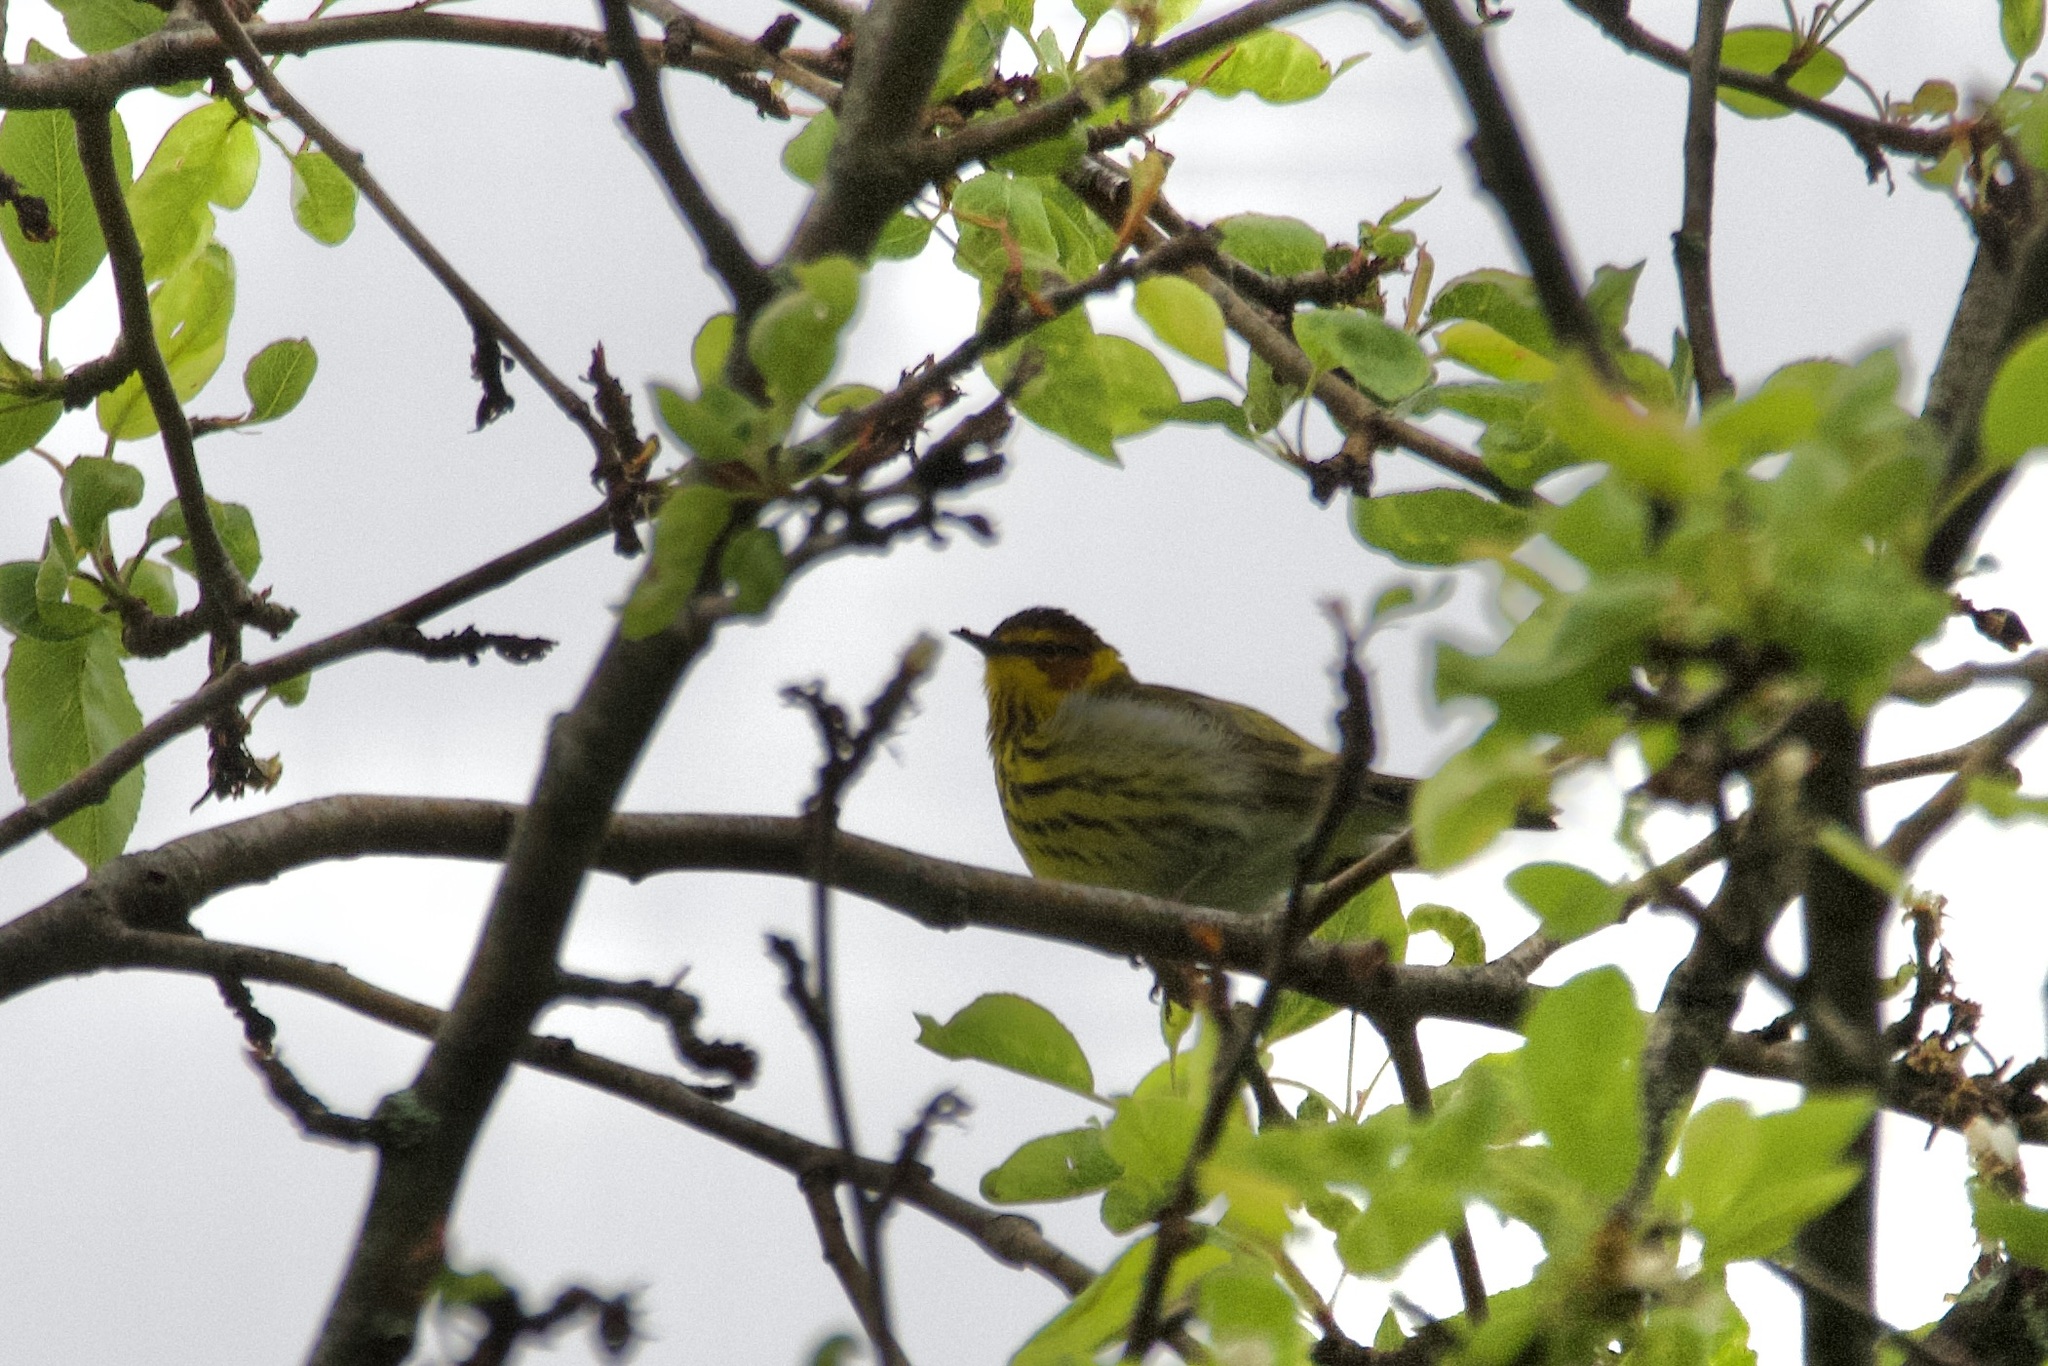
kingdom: Animalia
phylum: Chordata
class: Aves
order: Passeriformes
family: Parulidae
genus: Setophaga
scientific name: Setophaga tigrina
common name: Cape may warbler
